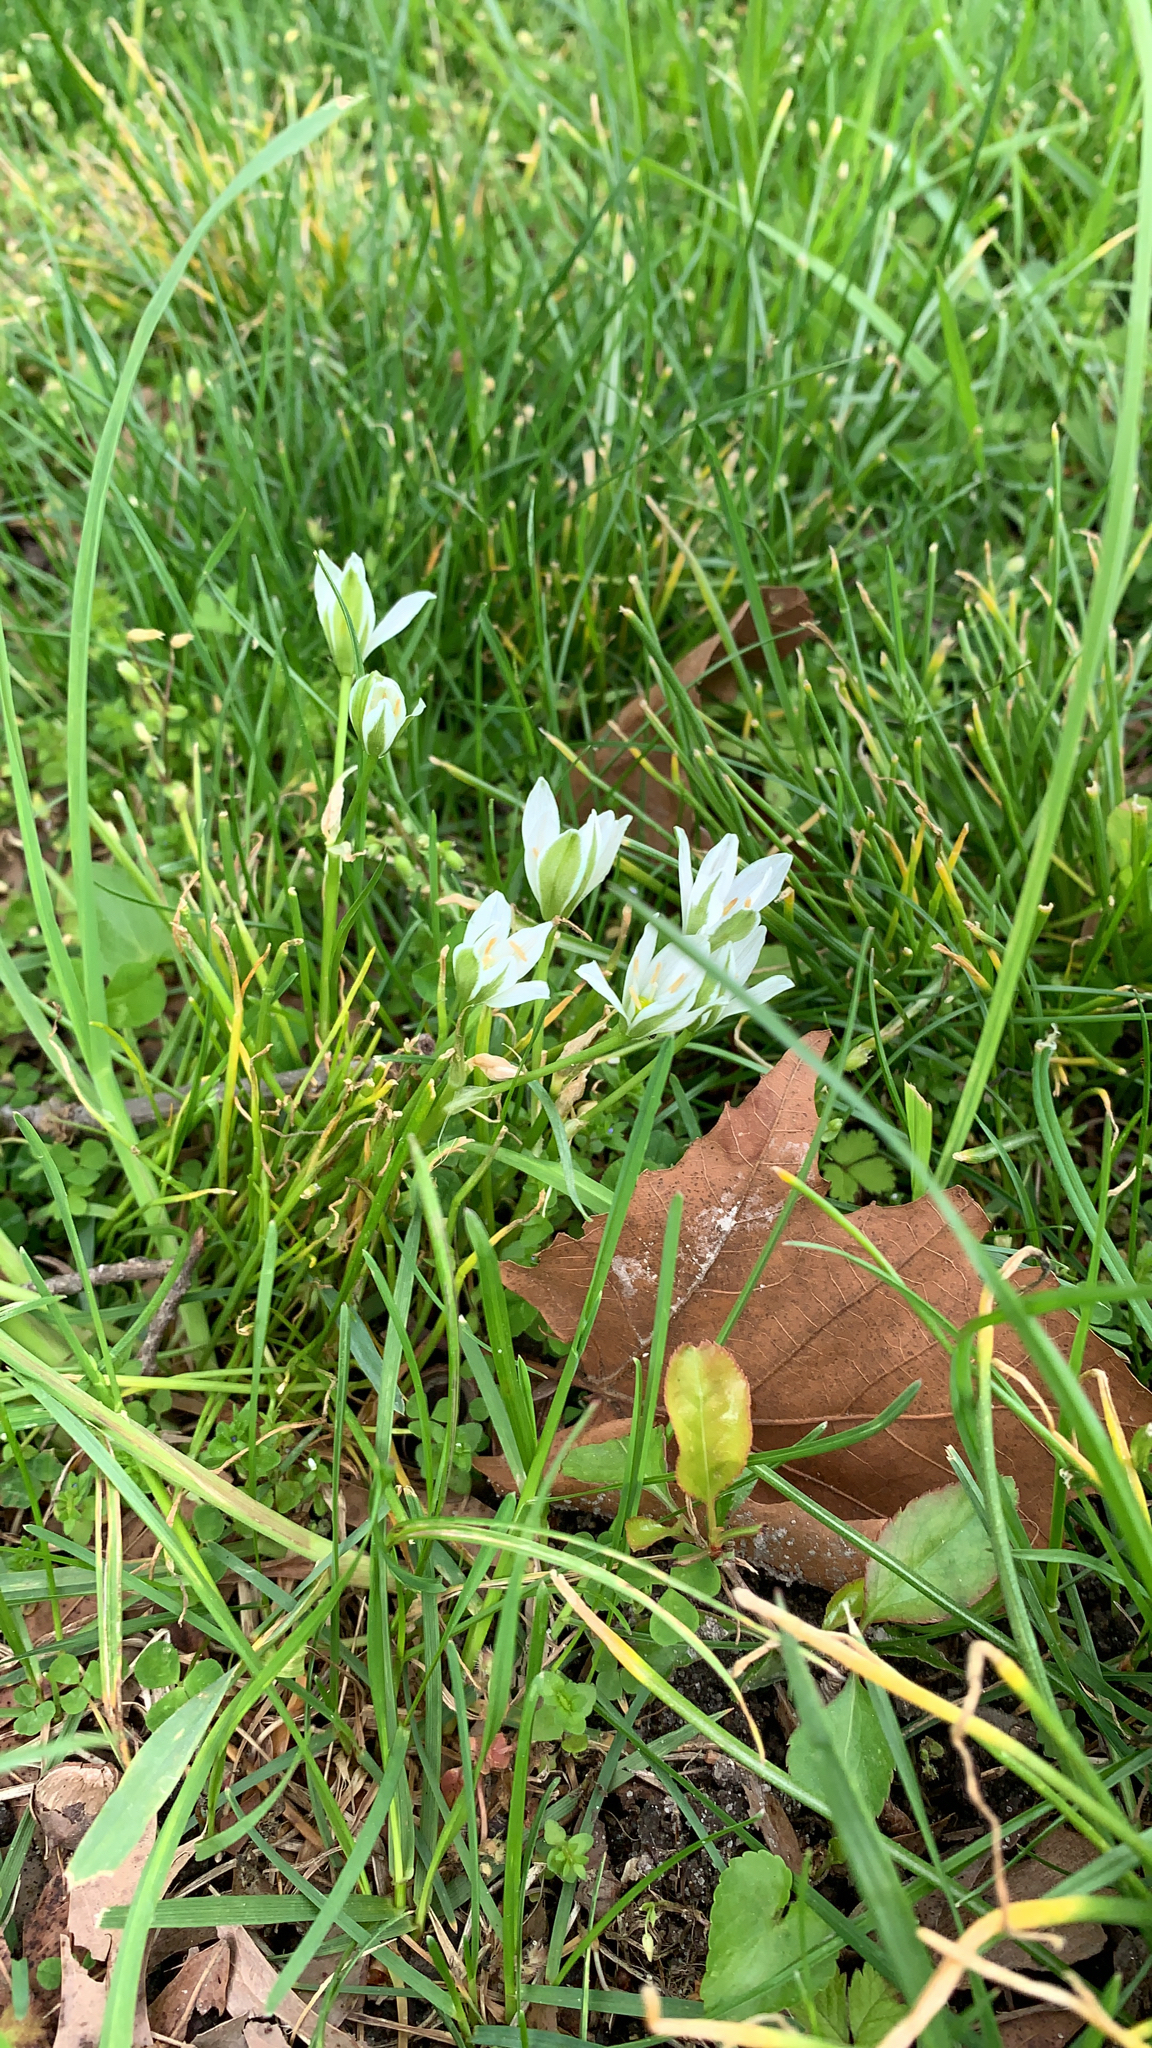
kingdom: Plantae
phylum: Tracheophyta
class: Liliopsida
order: Asparagales
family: Asparagaceae
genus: Ornithogalum
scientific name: Ornithogalum umbellatum
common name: Garden star-of-bethlehem
